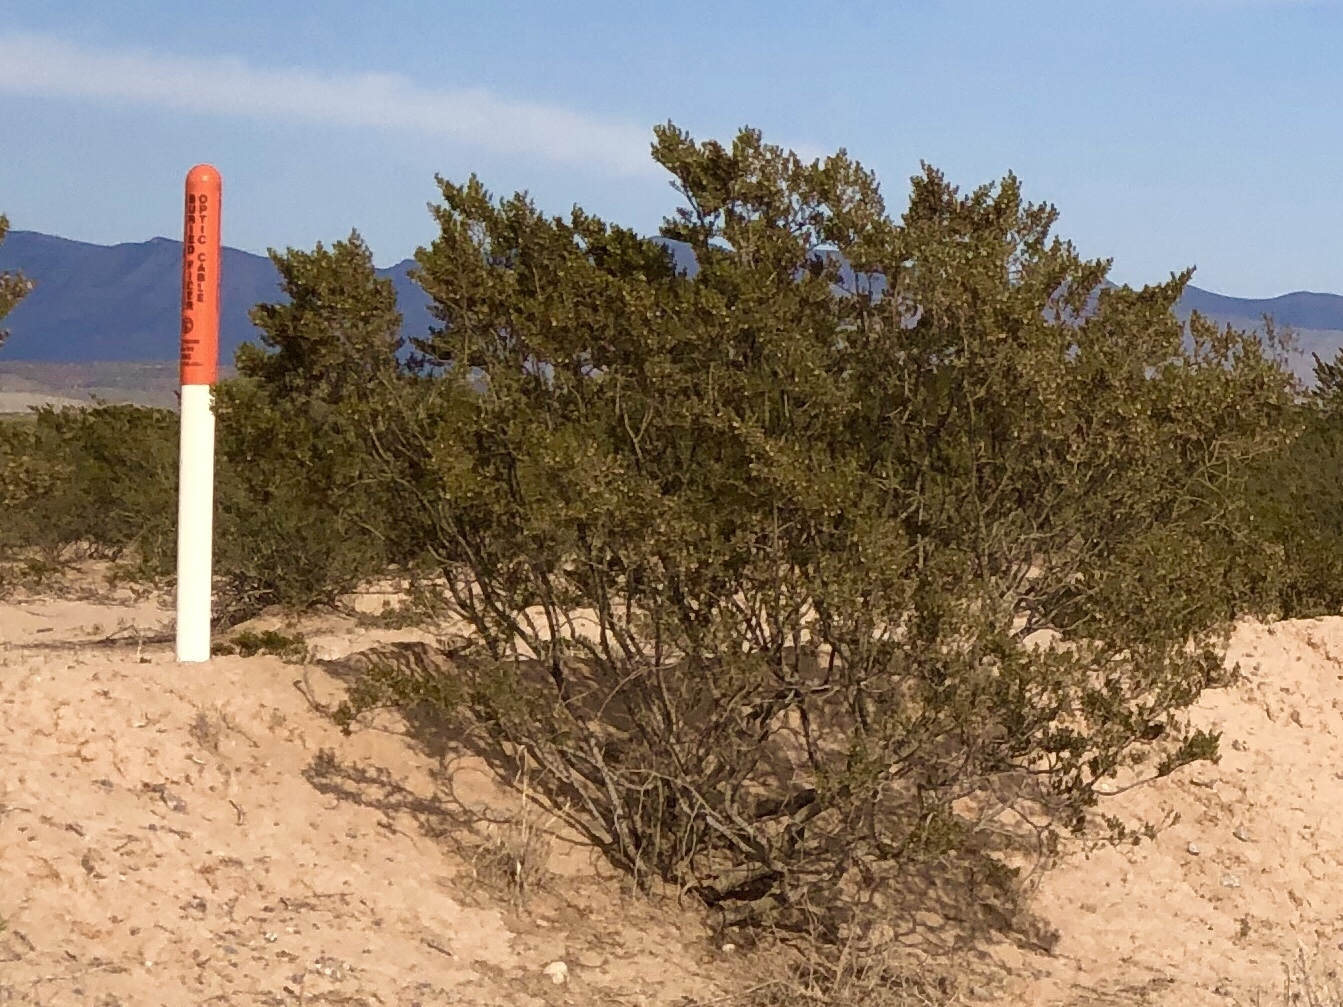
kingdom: Plantae
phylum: Tracheophyta
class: Magnoliopsida
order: Zygophyllales
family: Zygophyllaceae
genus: Larrea
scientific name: Larrea tridentata
